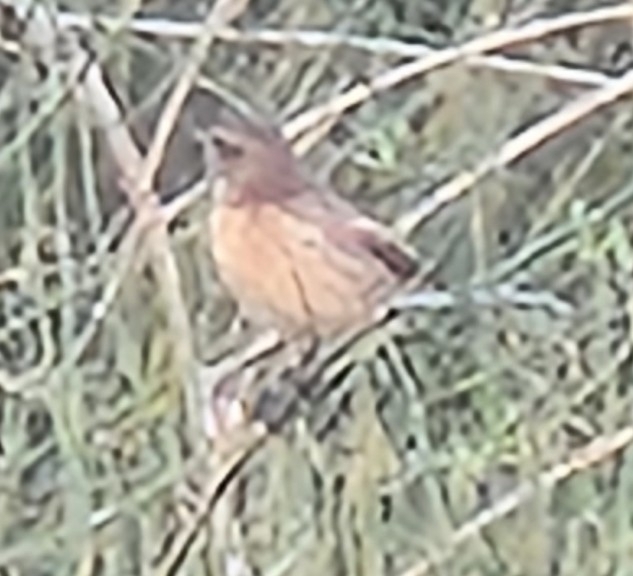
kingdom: Animalia
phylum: Chordata
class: Aves
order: Passeriformes
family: Muscicapidae
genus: Saxicola
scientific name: Saxicola rubicola
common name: European stonechat
